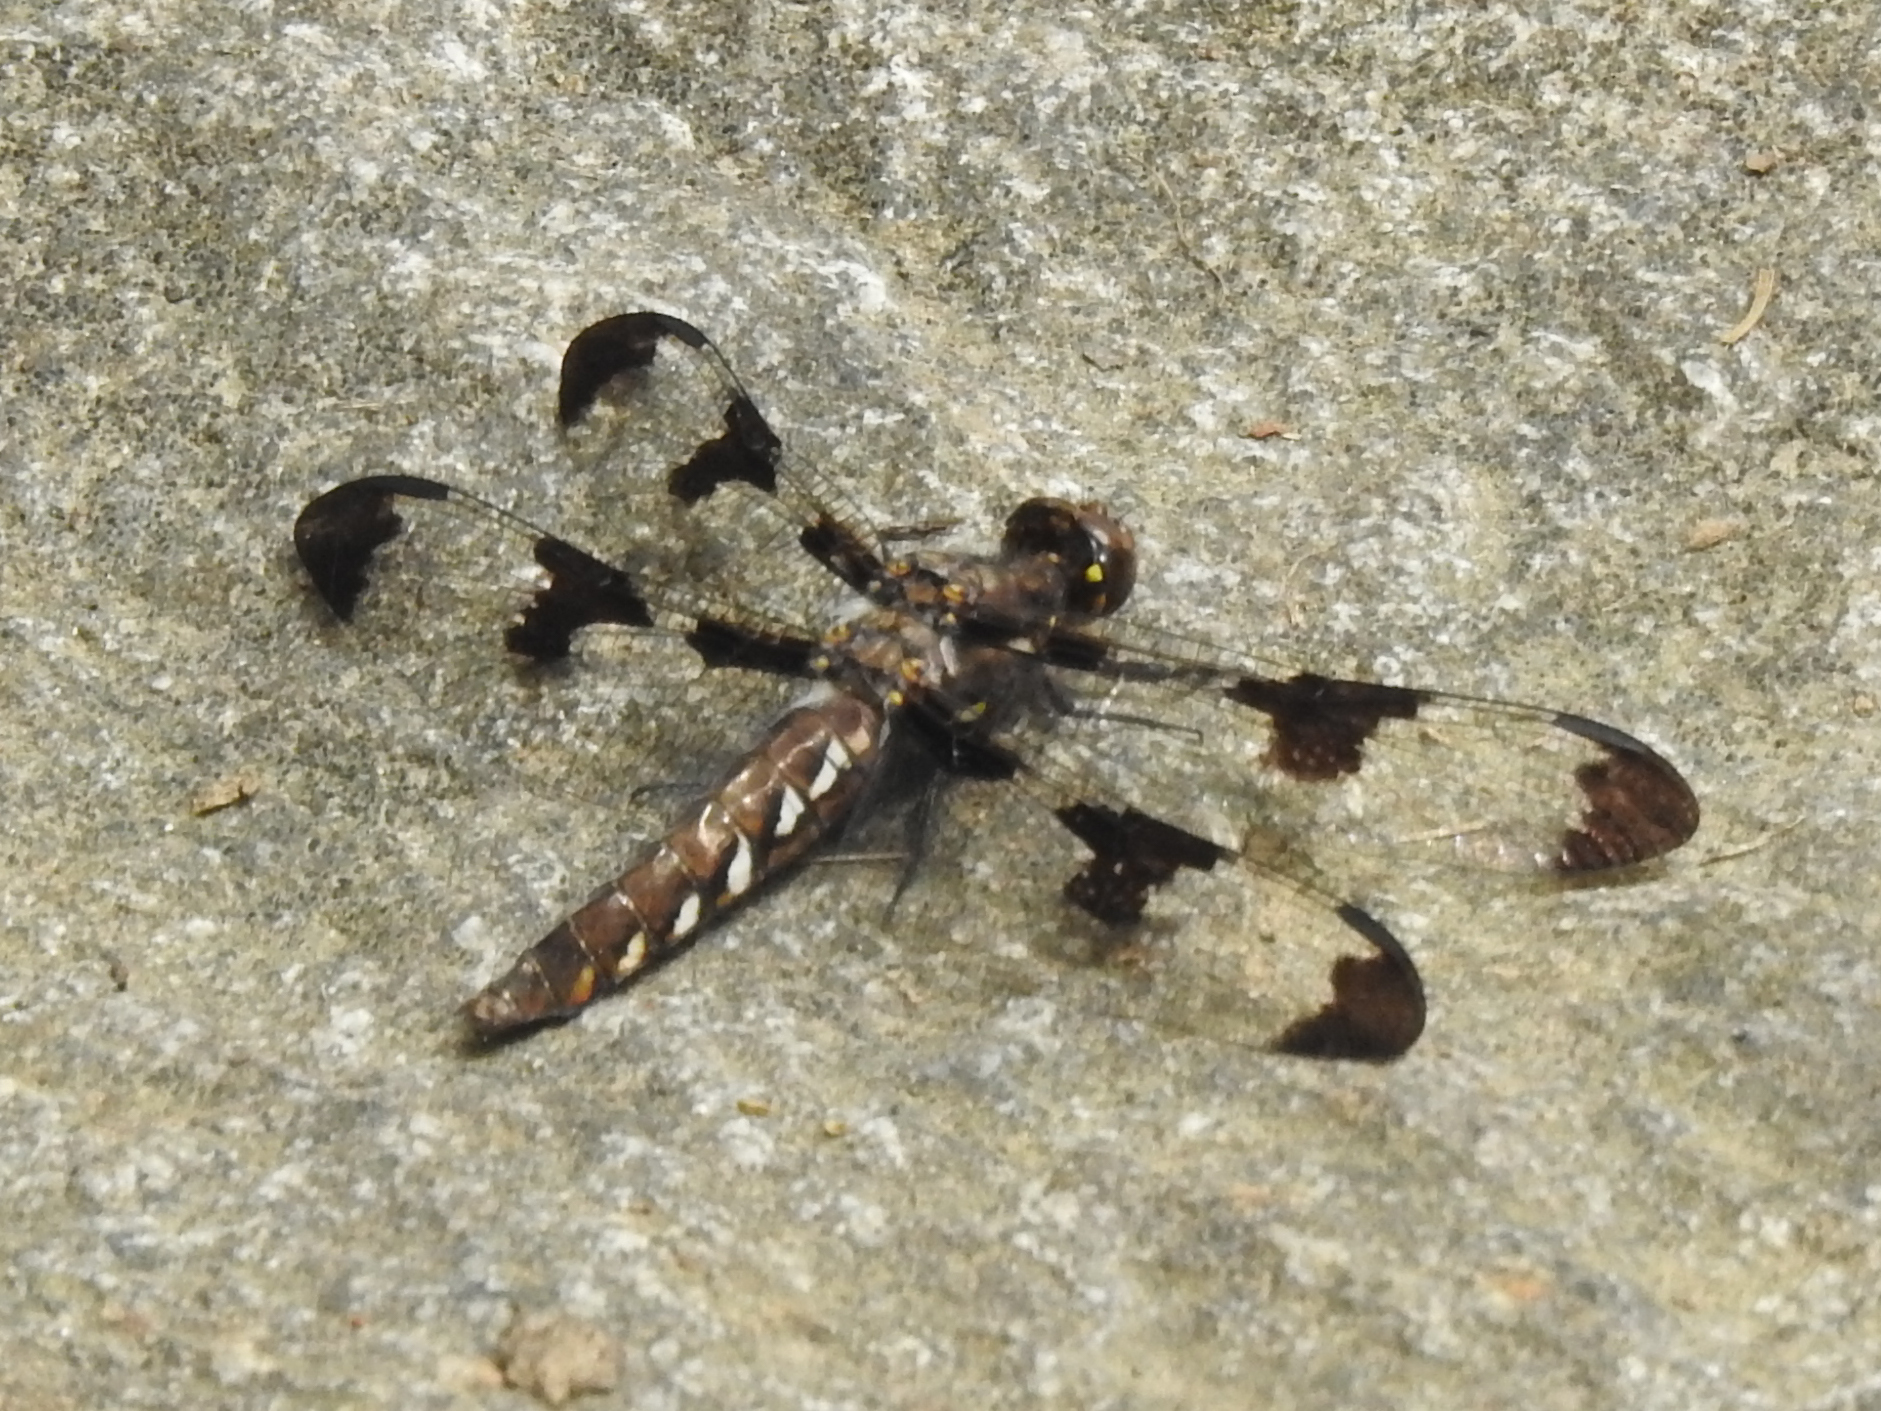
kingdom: Animalia
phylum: Arthropoda
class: Insecta
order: Odonata
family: Libellulidae
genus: Plathemis
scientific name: Plathemis lydia
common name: Common whitetail
